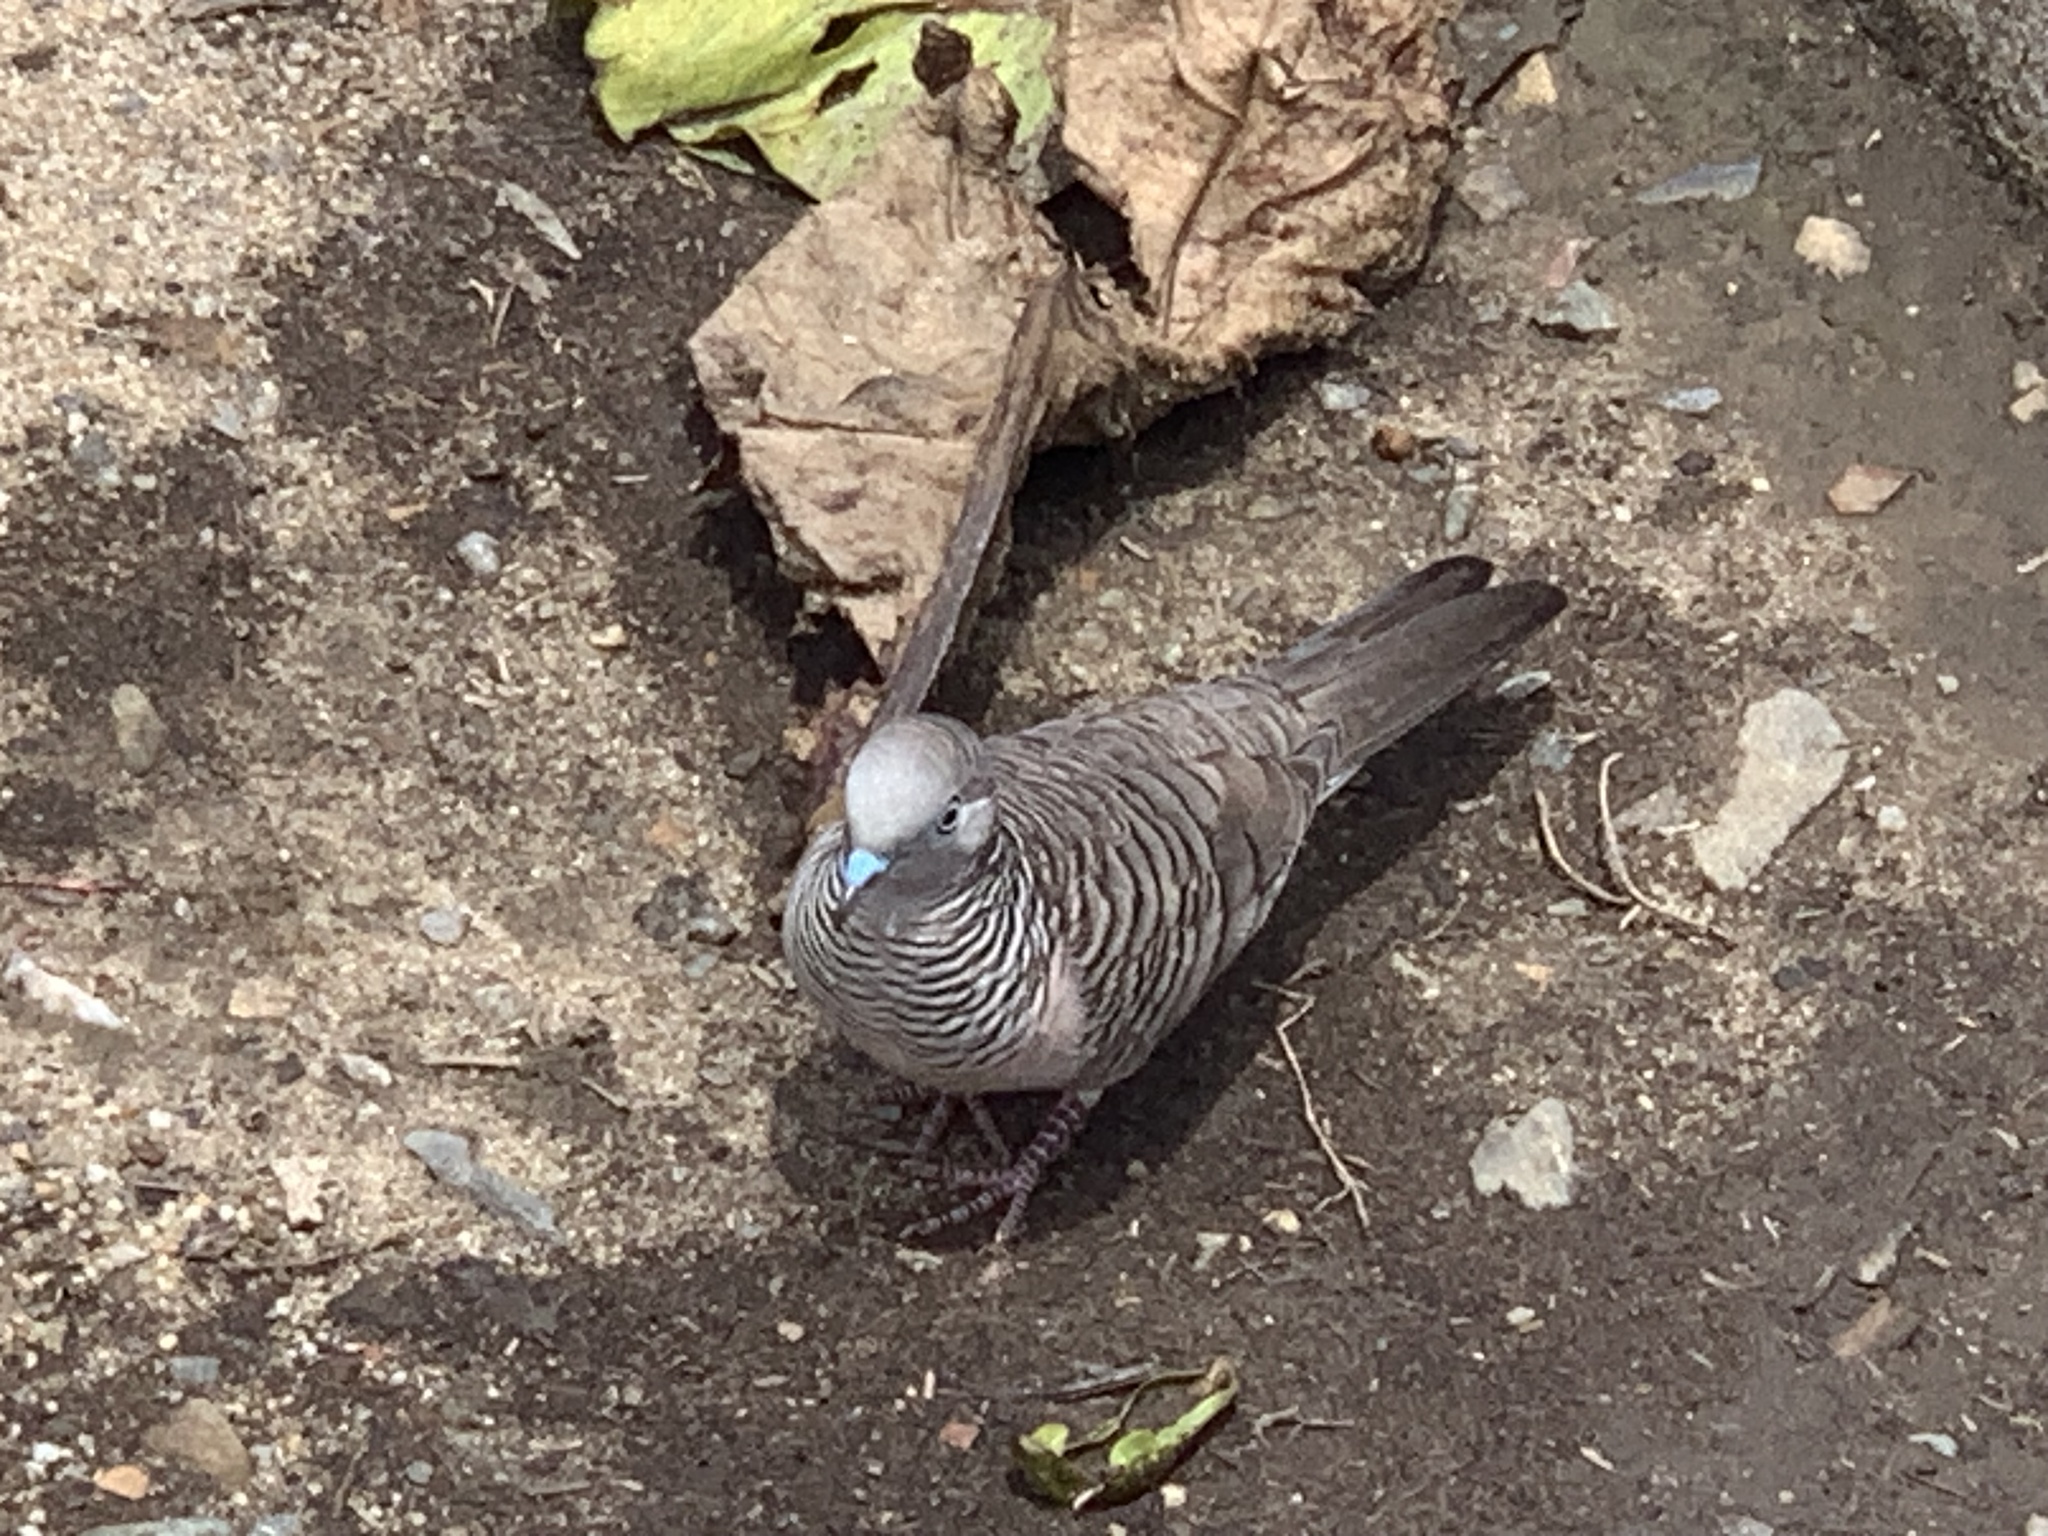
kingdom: Animalia
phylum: Chordata
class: Aves
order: Columbiformes
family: Columbidae
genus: Geopelia
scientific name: Geopelia placida
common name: Peaceful dove
